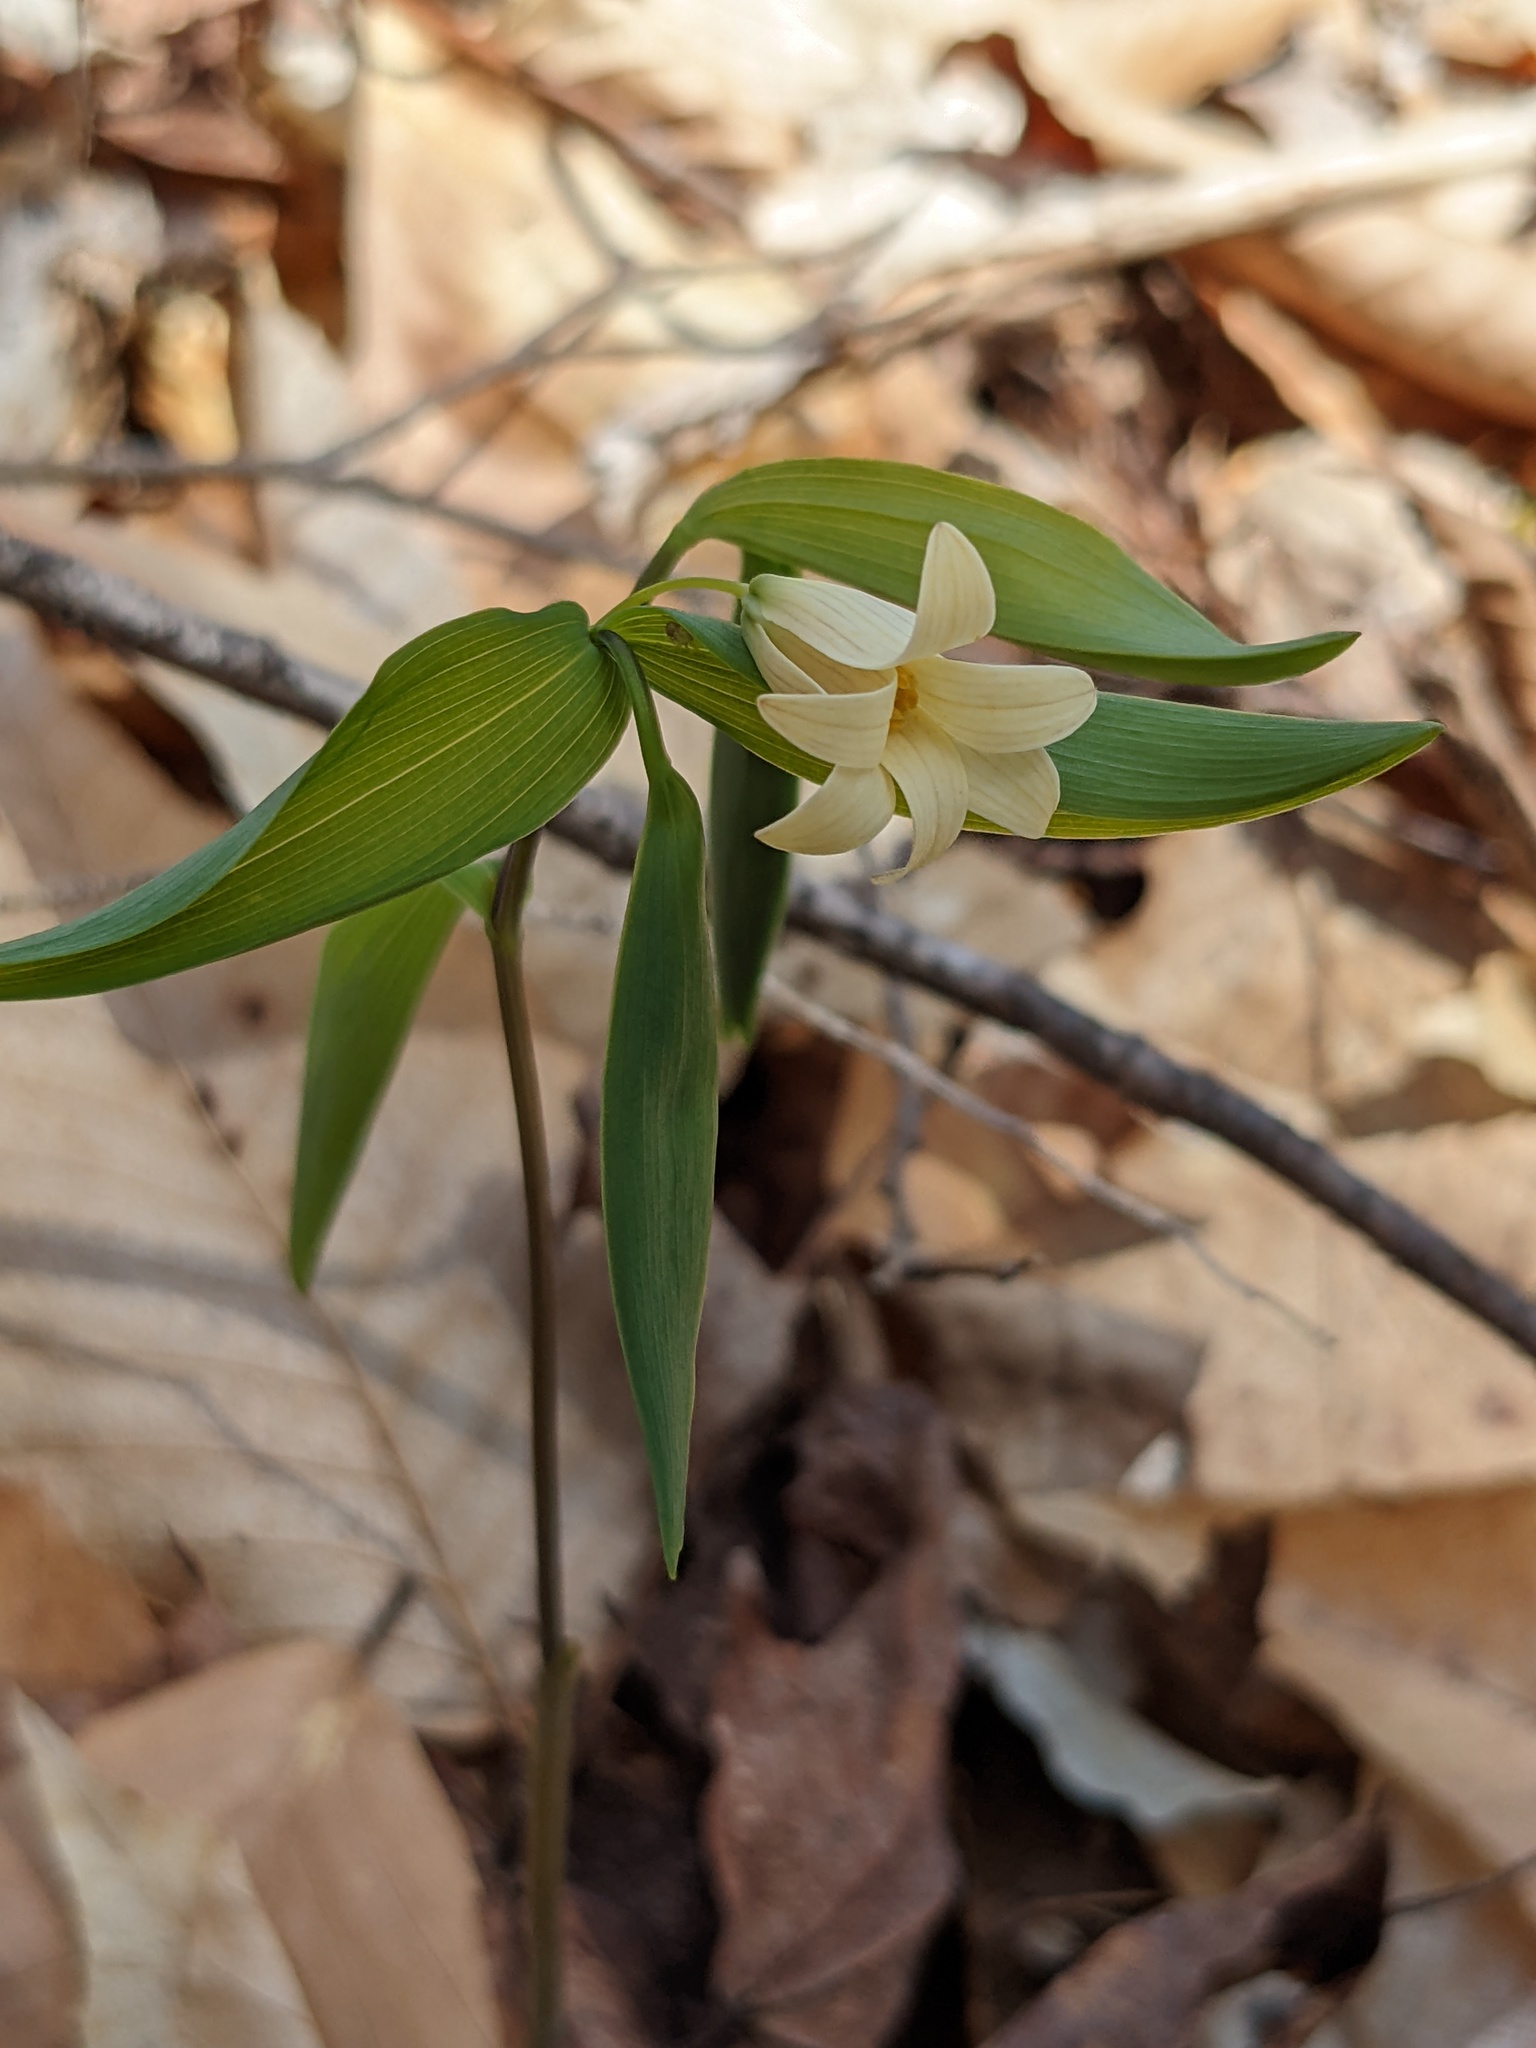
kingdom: Plantae
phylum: Tracheophyta
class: Liliopsida
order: Liliales
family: Colchicaceae
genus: Uvularia
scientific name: Uvularia sessilifolia
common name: Straw-lily
